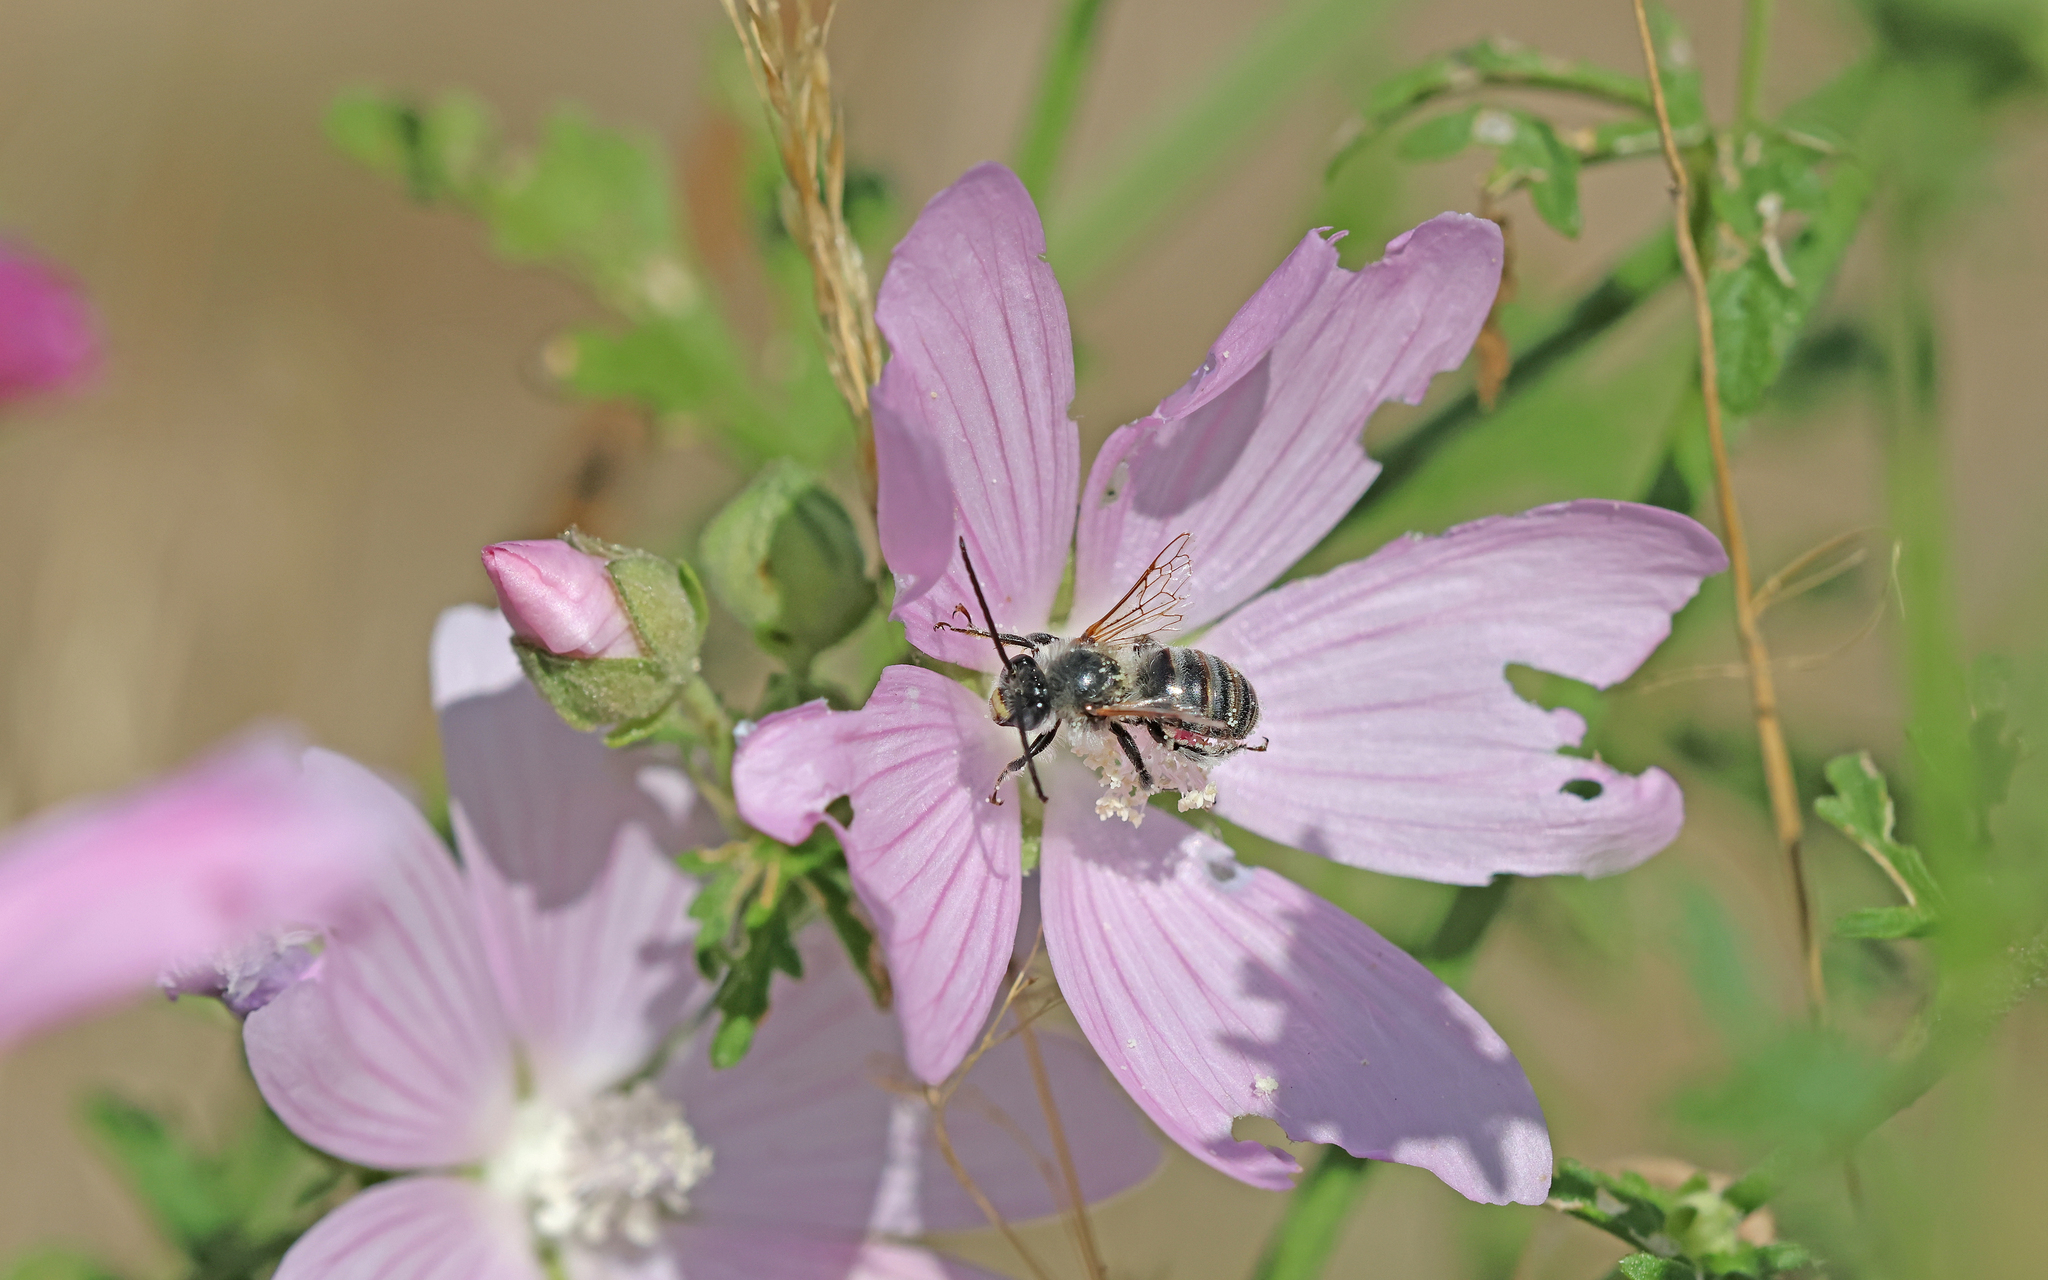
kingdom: Animalia
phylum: Arthropoda
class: Insecta
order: Hymenoptera
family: Apidae
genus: Tetralonia
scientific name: Tetralonia malvae
